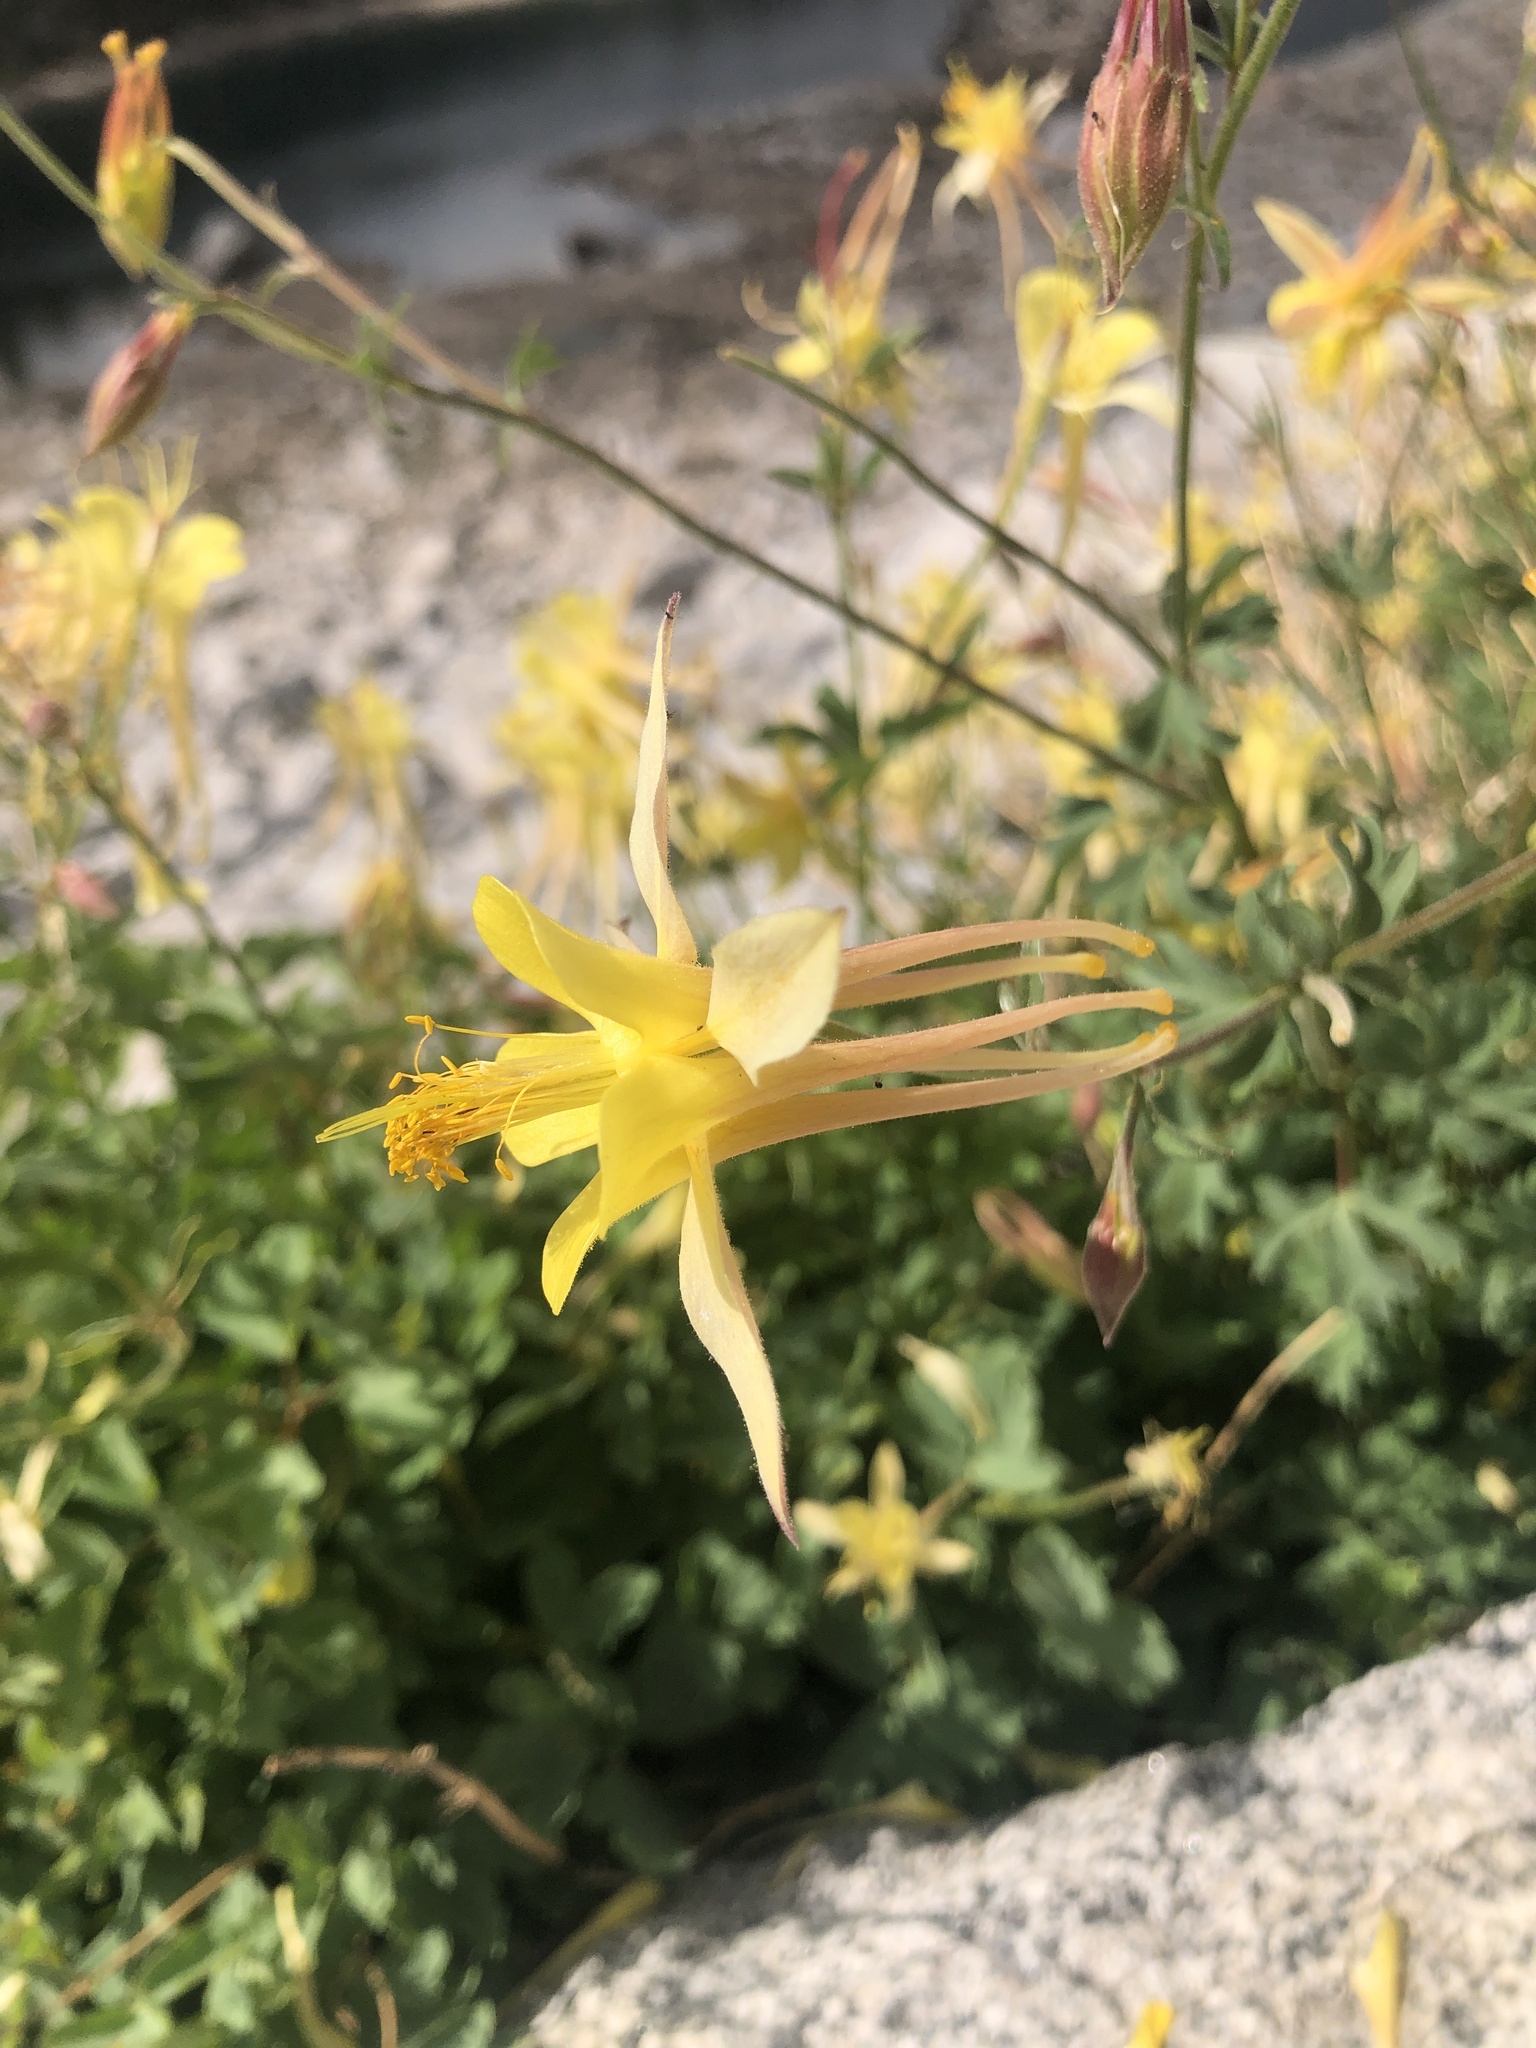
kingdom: Plantae
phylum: Tracheophyta
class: Magnoliopsida
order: Ranunculales
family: Ranunculaceae
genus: Aquilegia
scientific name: Aquilegia pubescens
